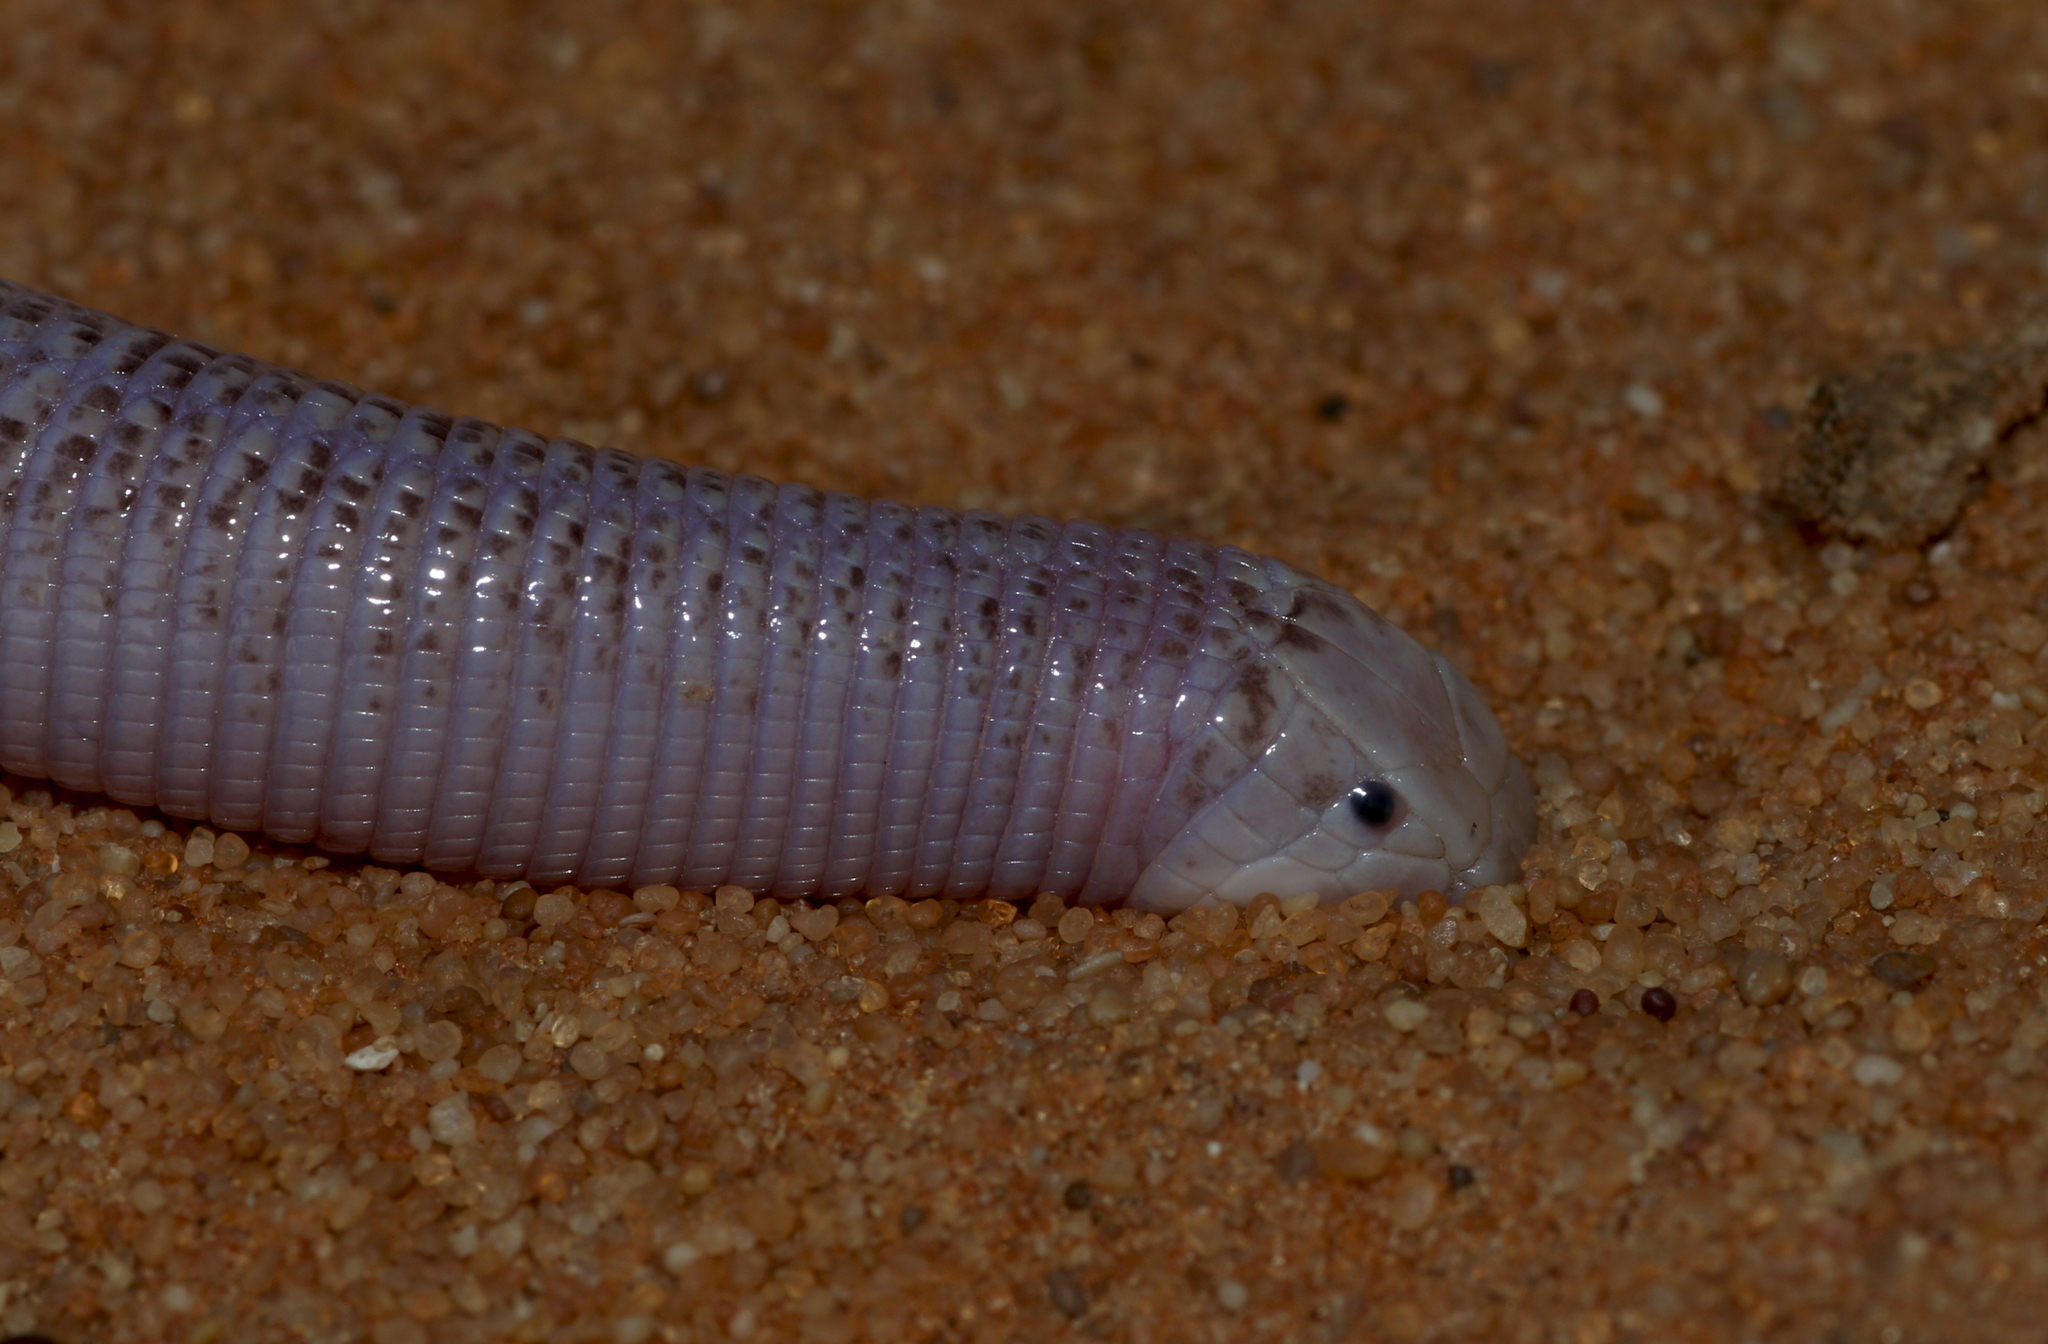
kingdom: Animalia
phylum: Chordata
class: Squamata
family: Trogonophidae
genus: Diplometopon
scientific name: Diplometopon zarudnyi
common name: Zarudnyi's worm lizard
